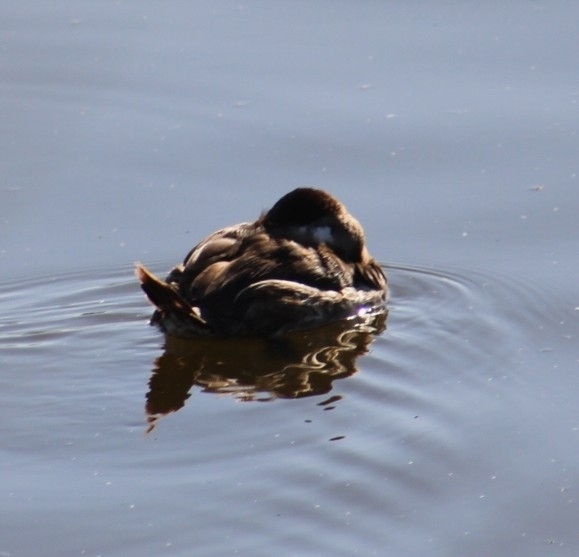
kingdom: Animalia
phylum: Chordata
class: Aves
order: Anseriformes
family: Anatidae
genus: Oxyura
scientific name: Oxyura jamaicensis
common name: Ruddy duck
